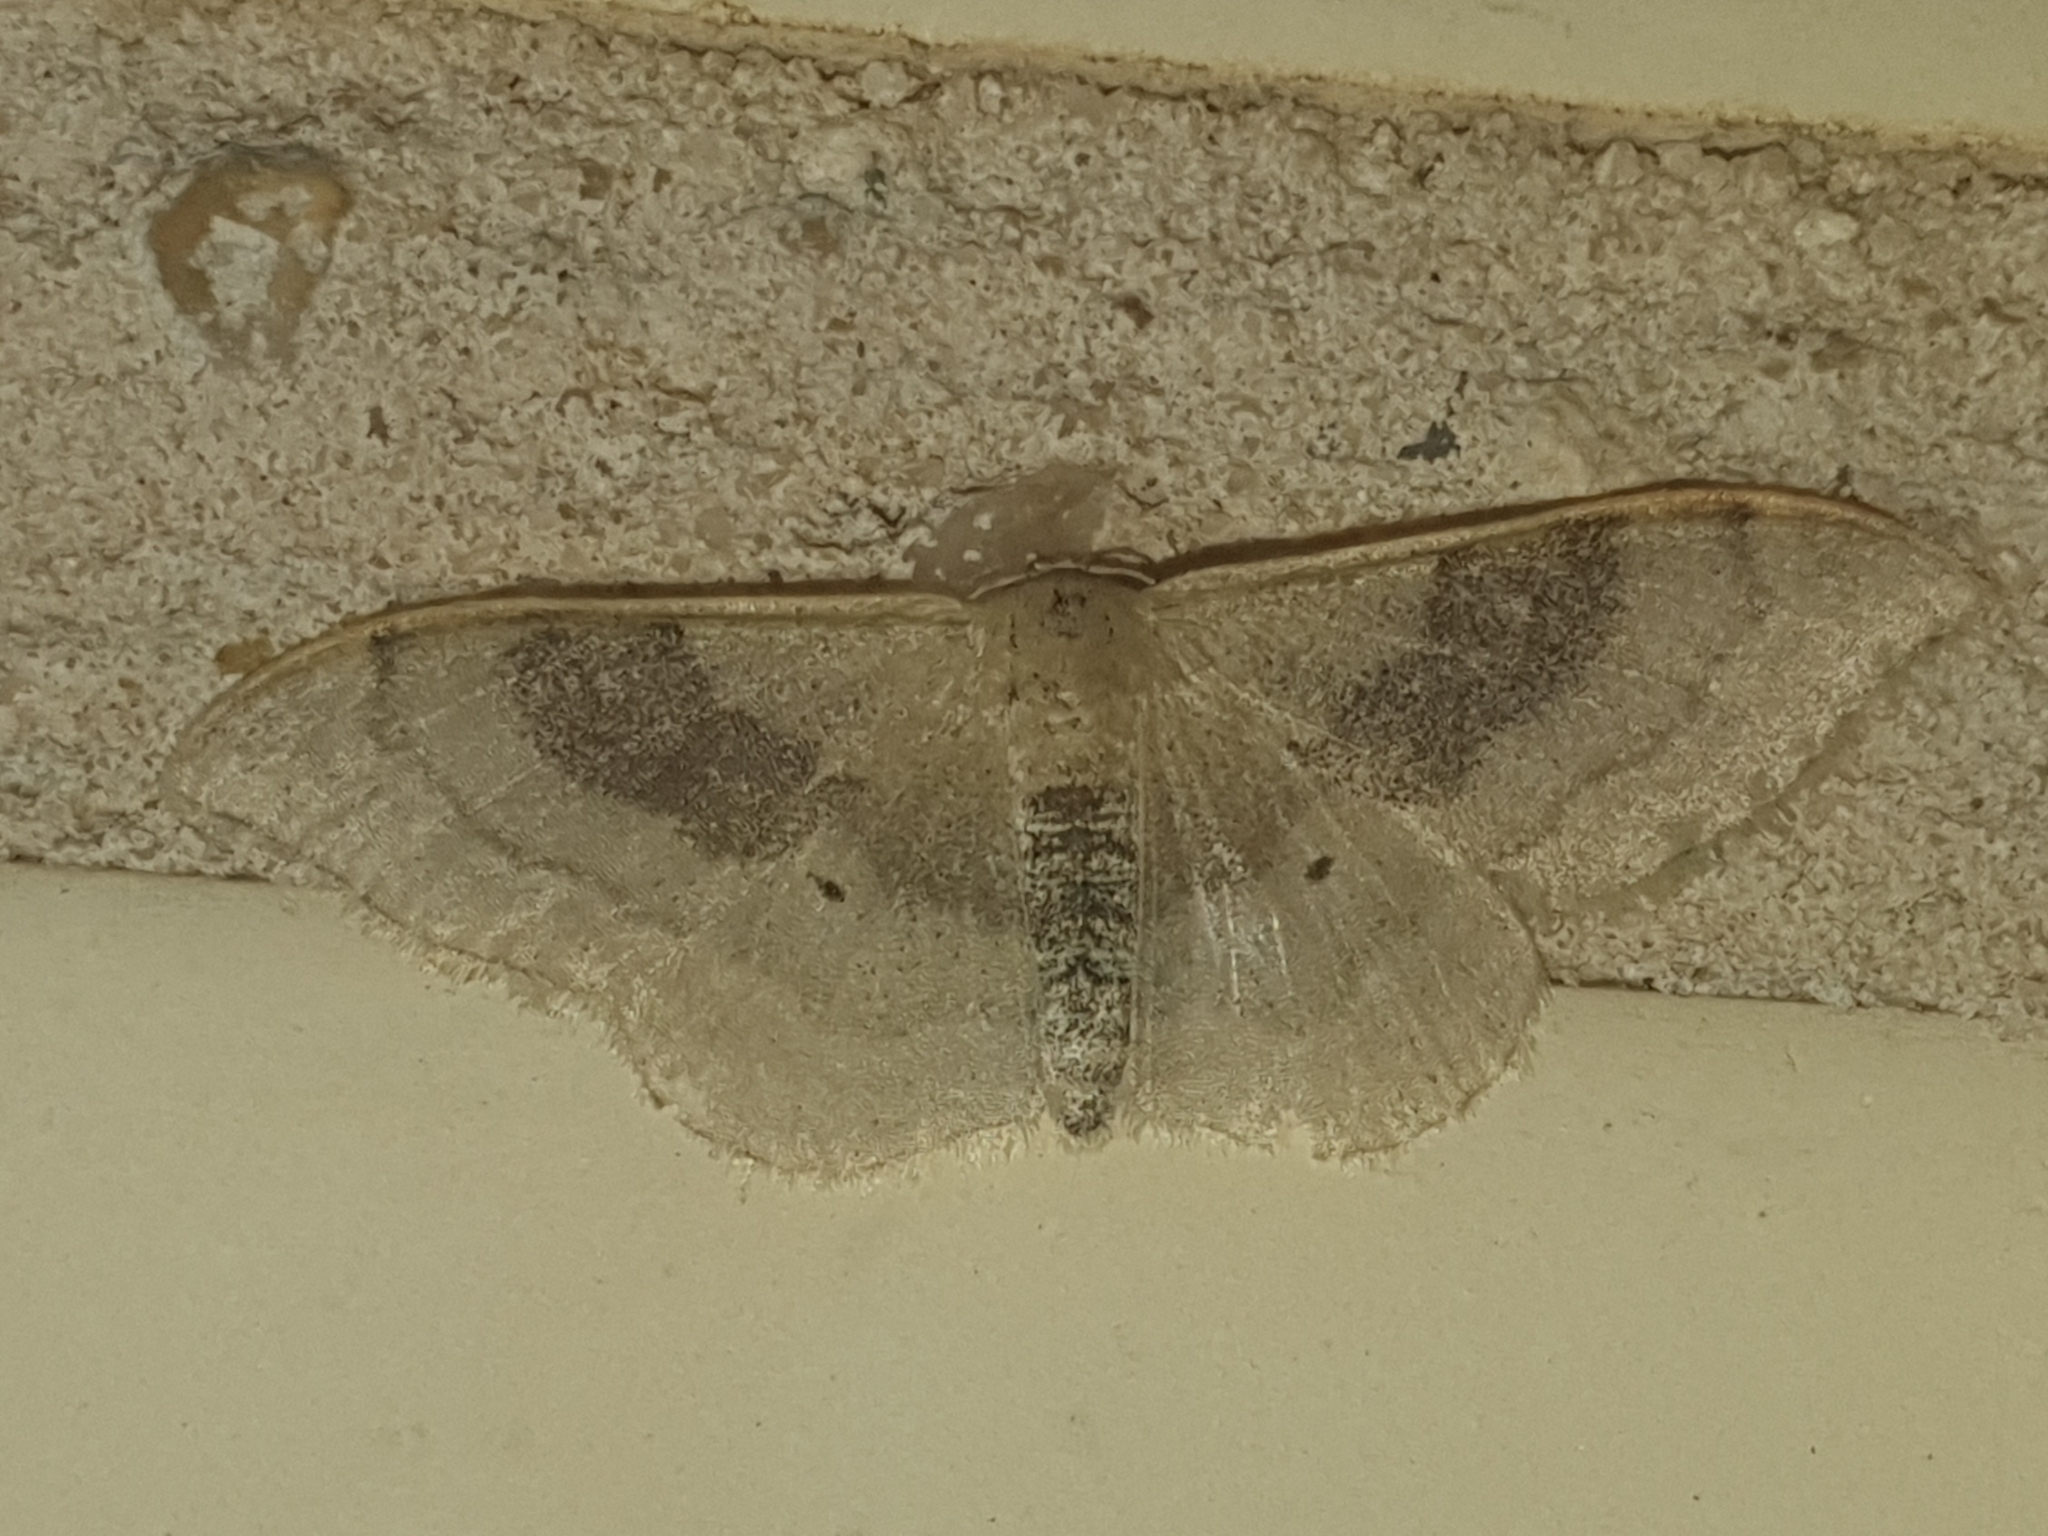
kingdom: Animalia
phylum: Arthropoda
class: Insecta
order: Lepidoptera
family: Geometridae
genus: Idaea
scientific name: Idaea degeneraria
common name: Portland ribbon wave
